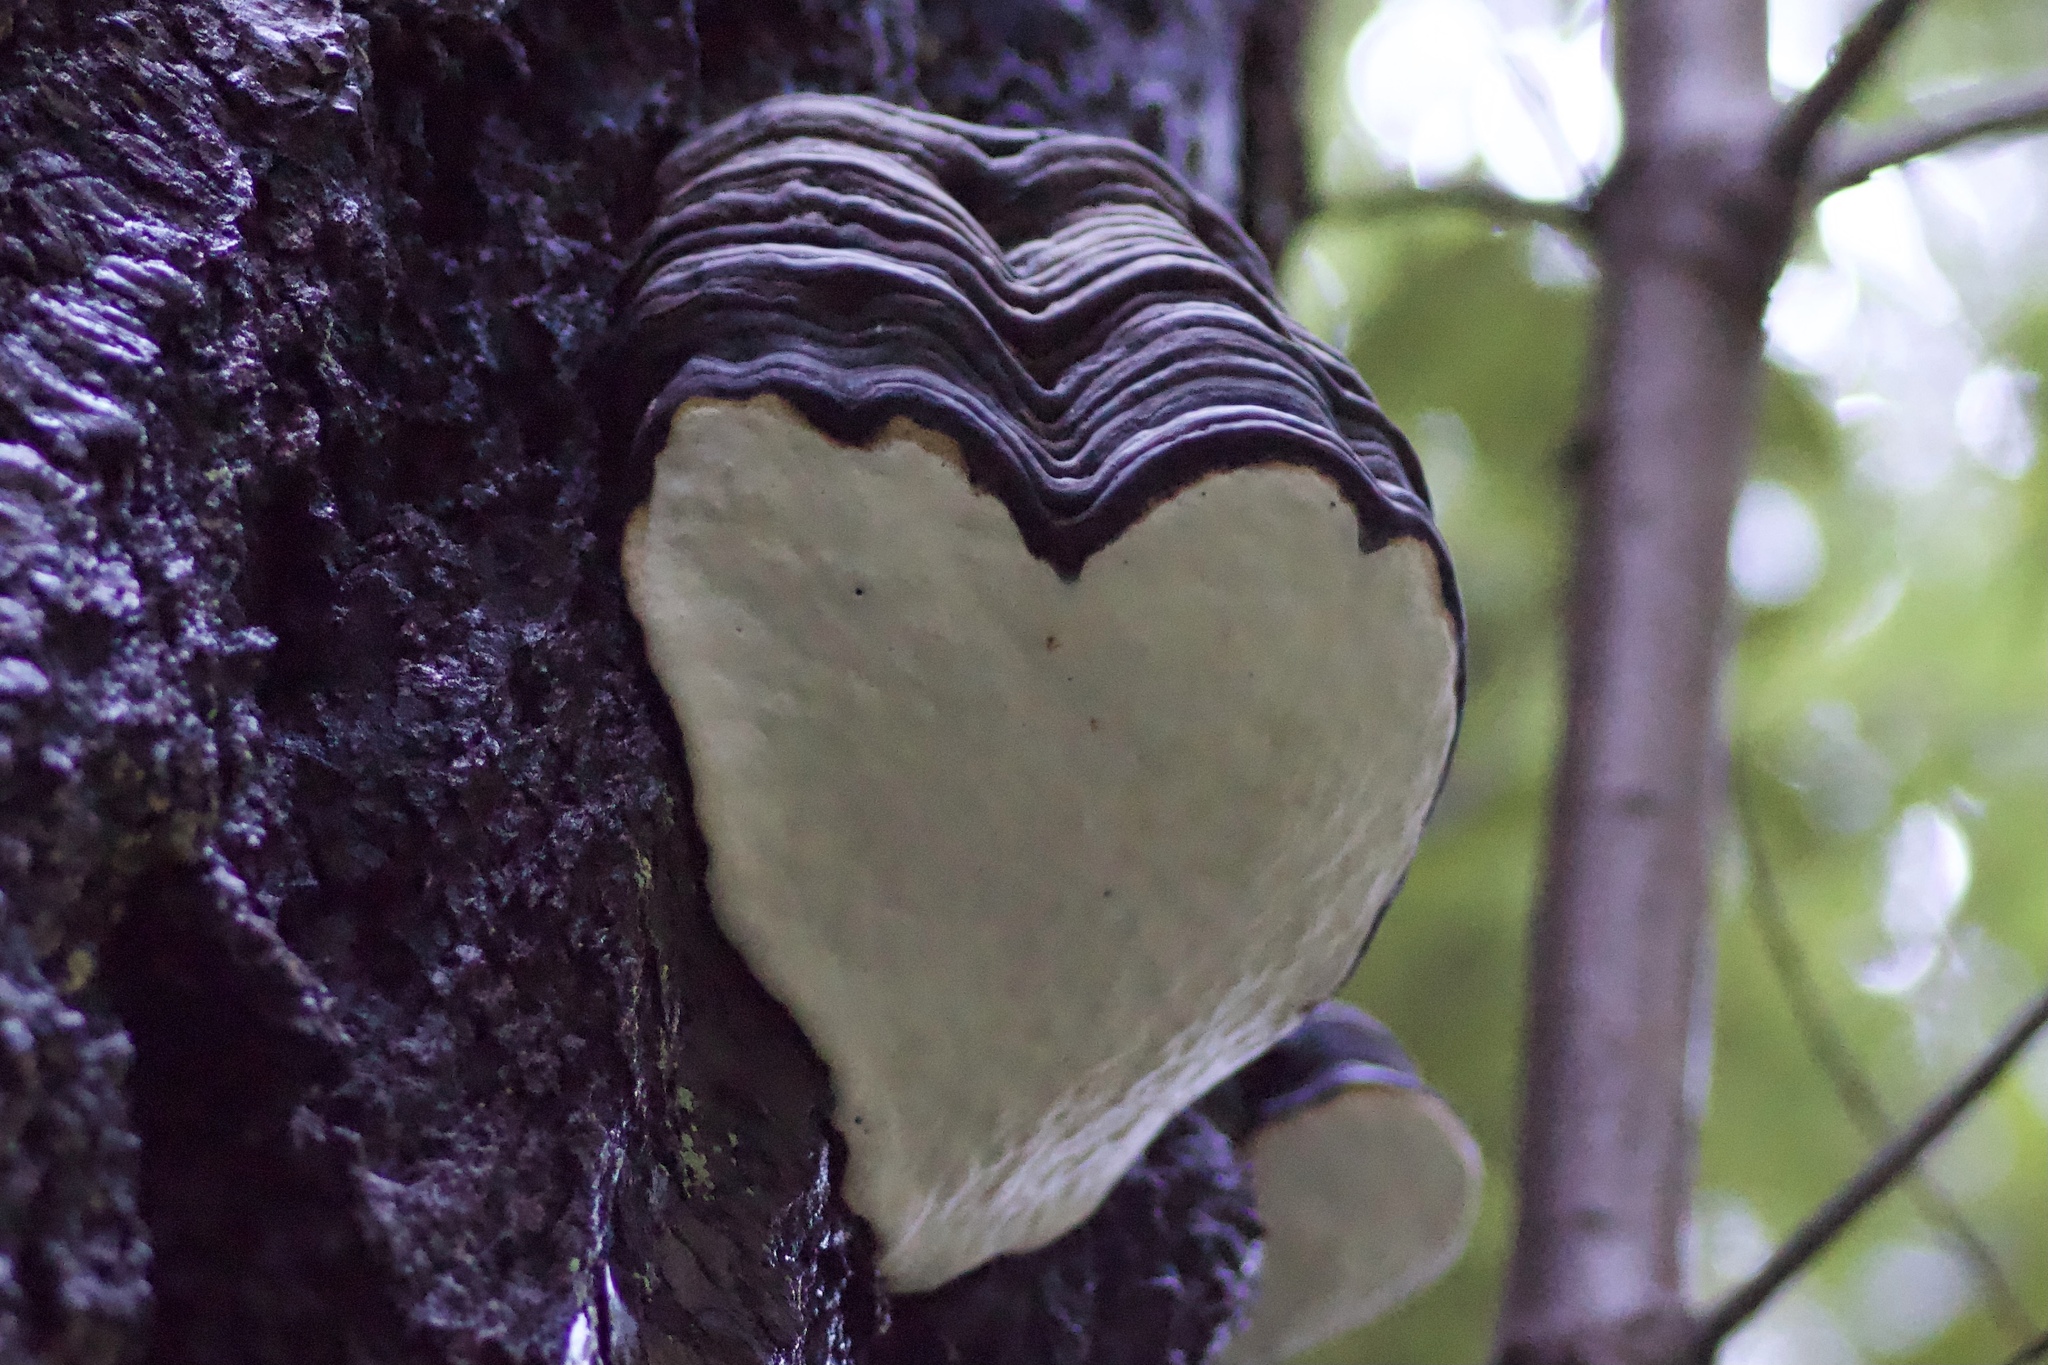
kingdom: Fungi
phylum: Basidiomycota
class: Agaricomycetes
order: Polyporales
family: Fomitopsidaceae
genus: Fomitopsis
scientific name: Fomitopsis ochracea
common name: American brown fomitopsis
